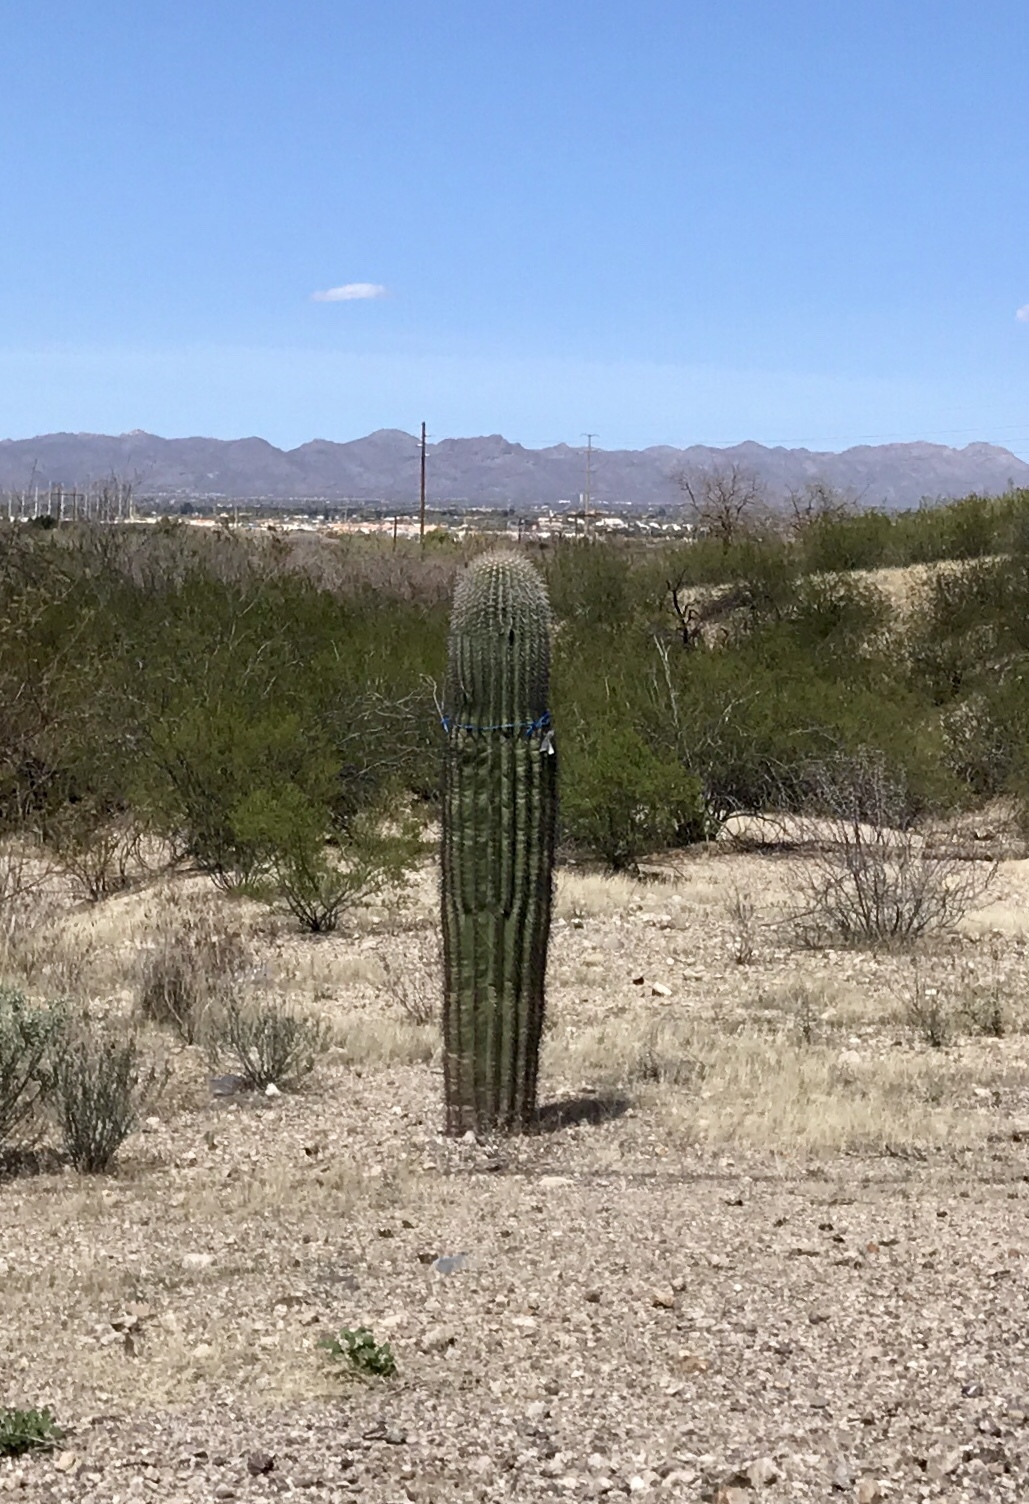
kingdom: Plantae
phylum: Tracheophyta
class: Magnoliopsida
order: Caryophyllales
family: Cactaceae
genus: Carnegiea
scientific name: Carnegiea gigantea
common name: Saguaro
